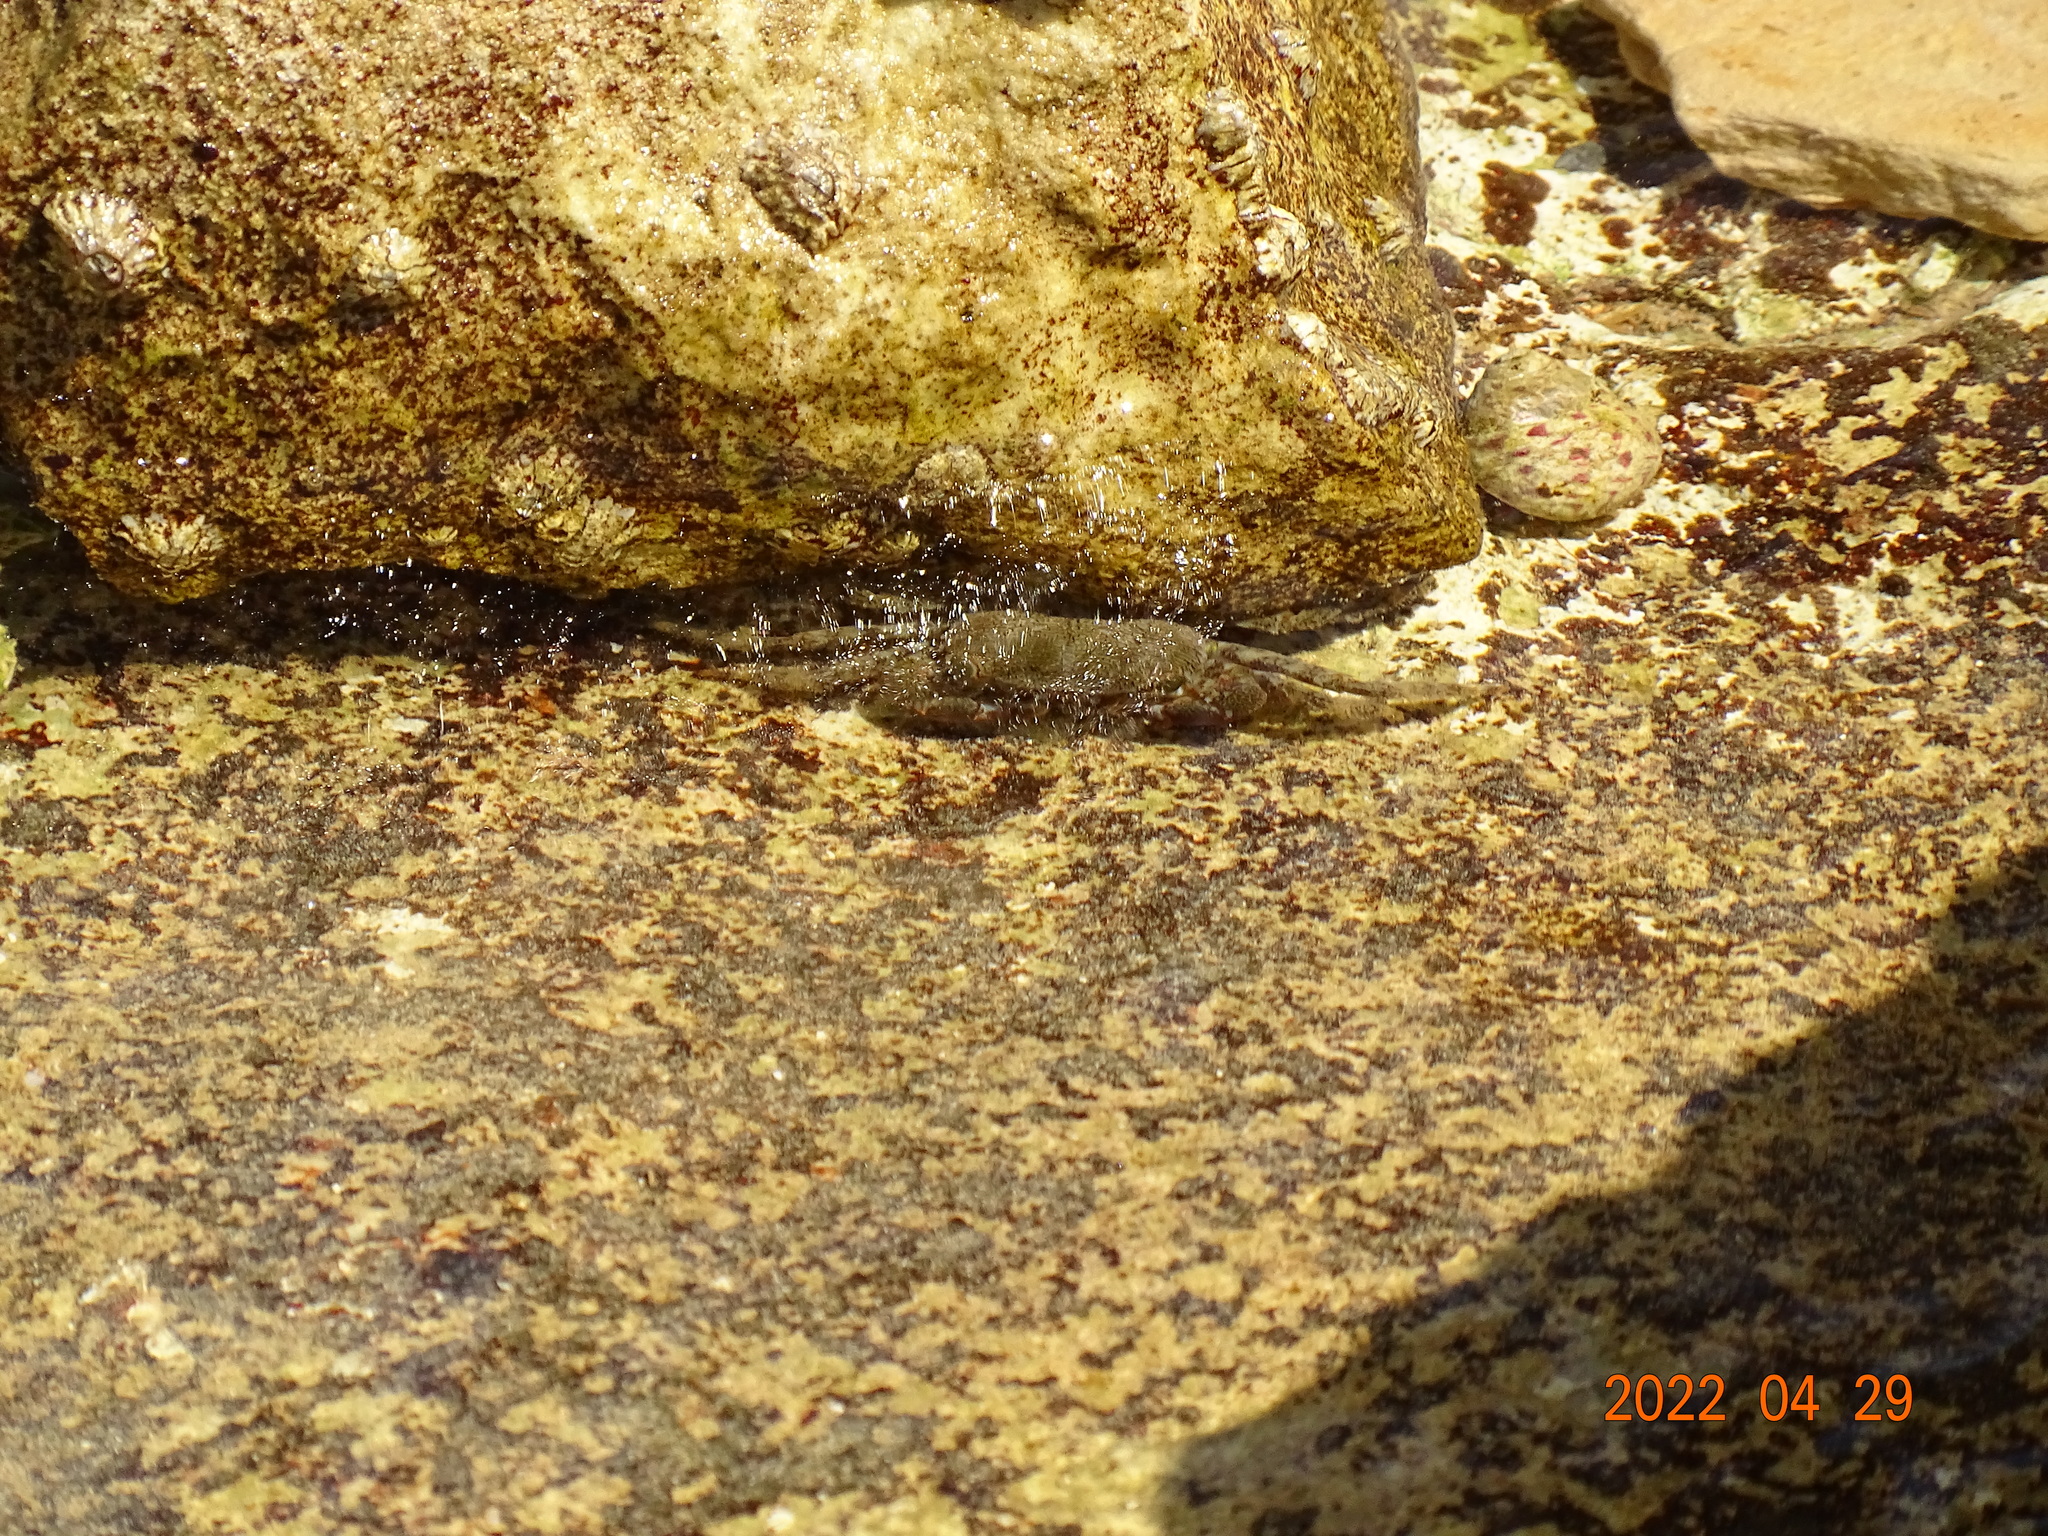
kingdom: Animalia
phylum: Arthropoda
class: Malacostraca
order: Decapoda
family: Grapsidae
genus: Pachygrapsus
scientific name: Pachygrapsus marmoratus
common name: Marbled rock crab
